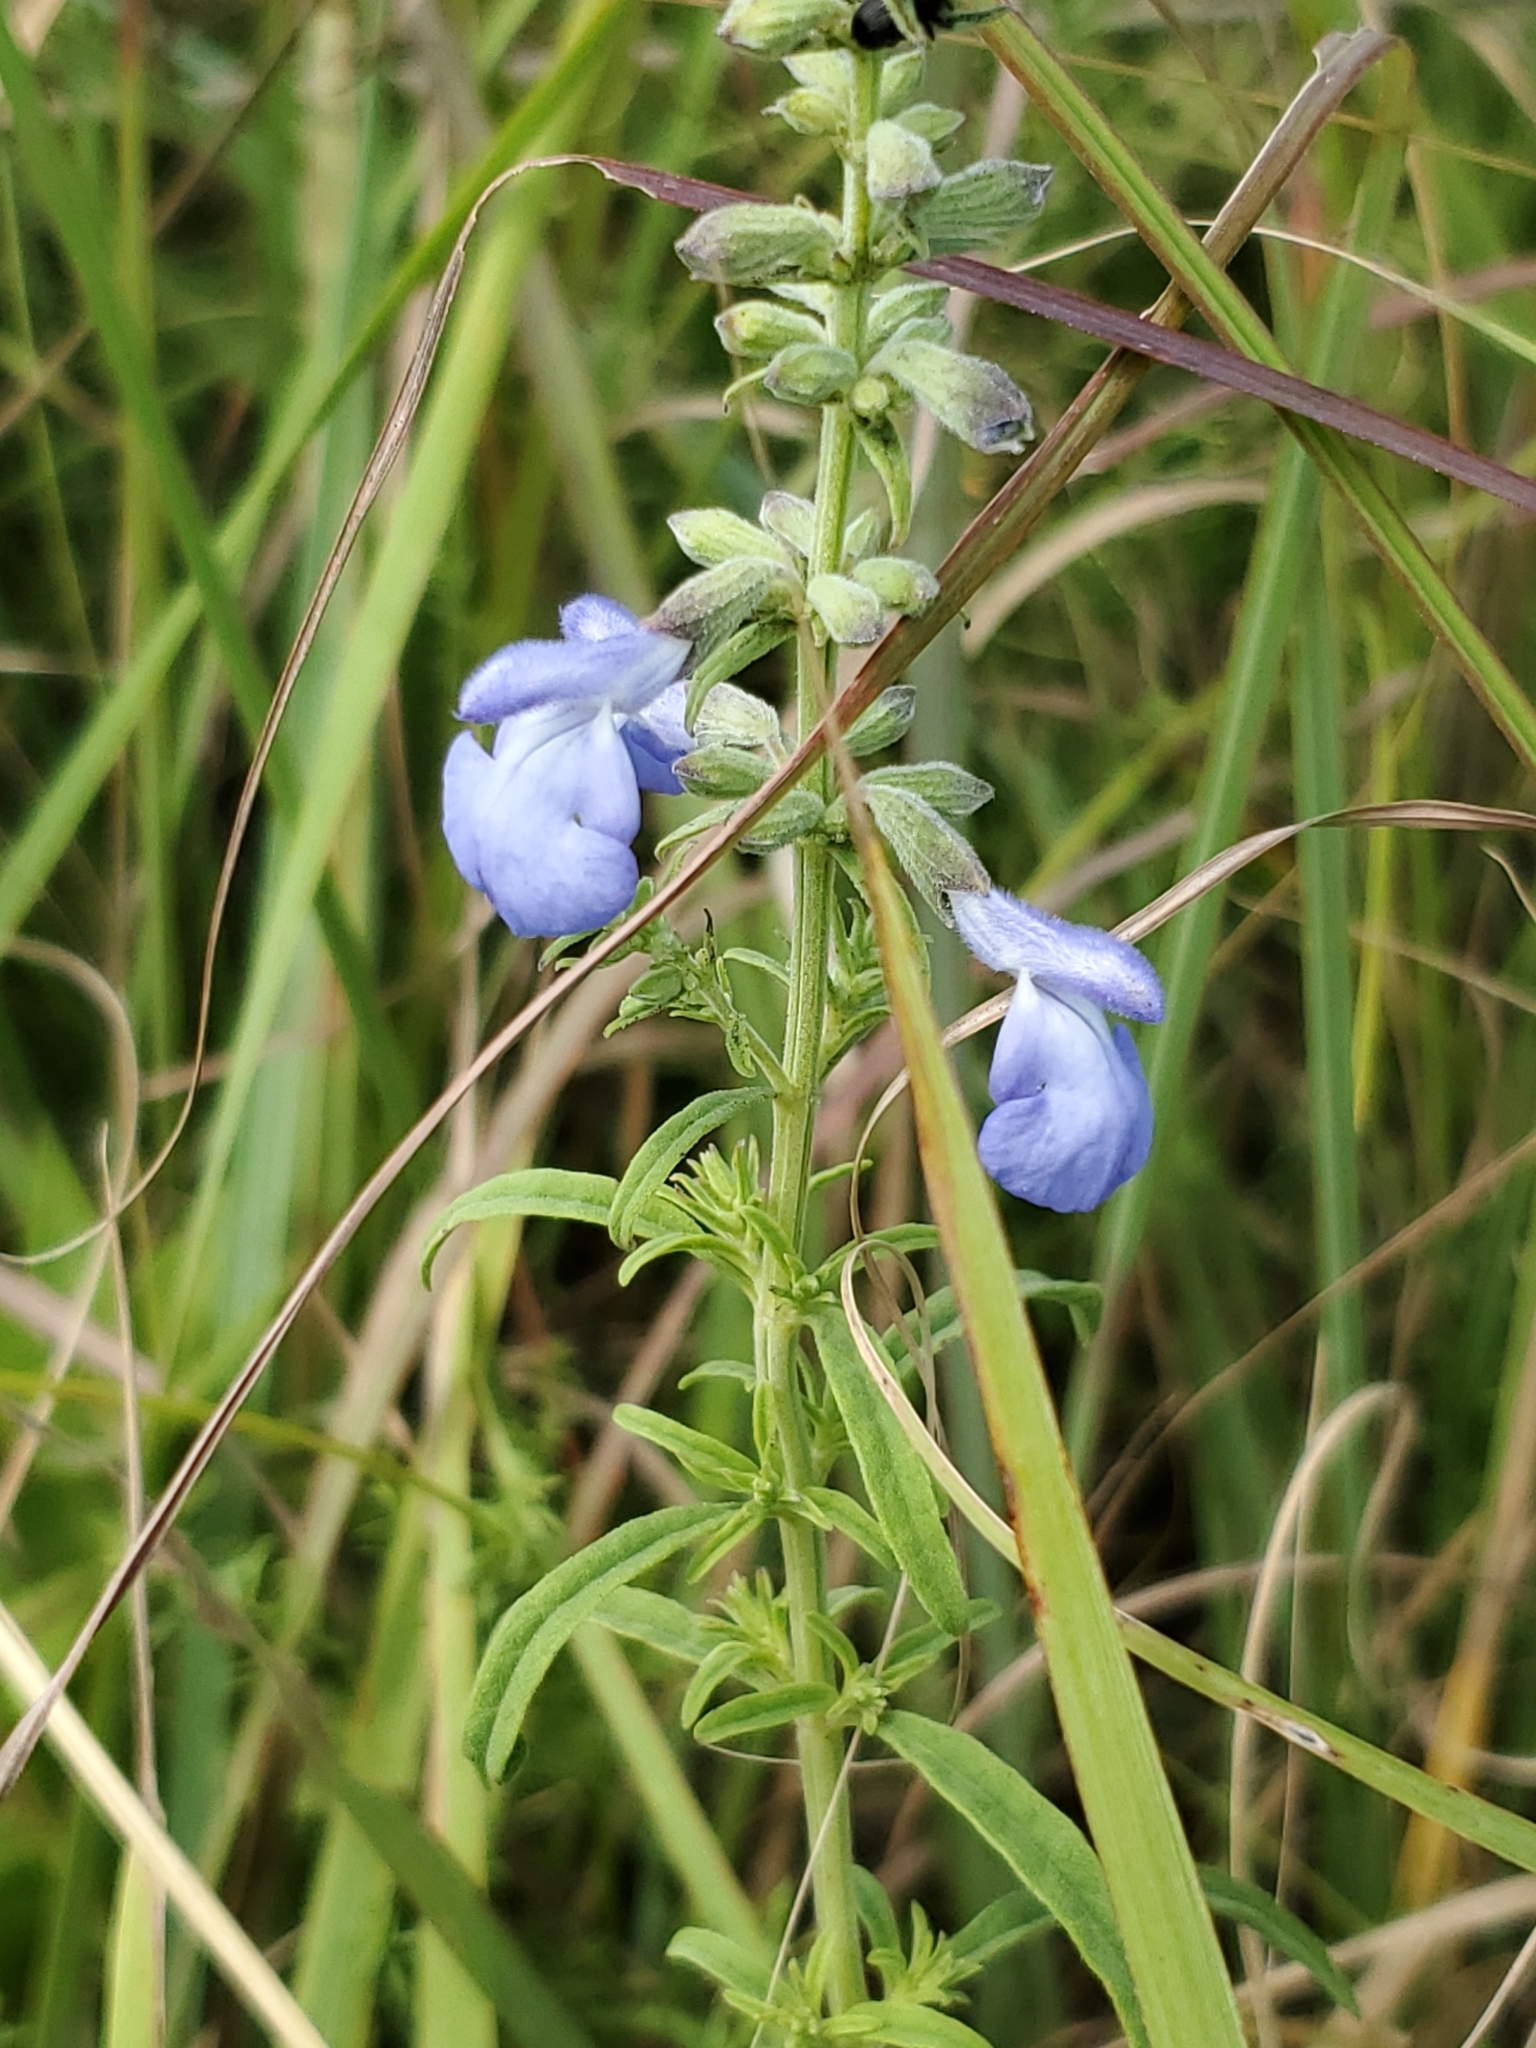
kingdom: Plantae
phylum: Tracheophyta
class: Magnoliopsida
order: Lamiales
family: Lamiaceae
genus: Salvia
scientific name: Salvia azurea
